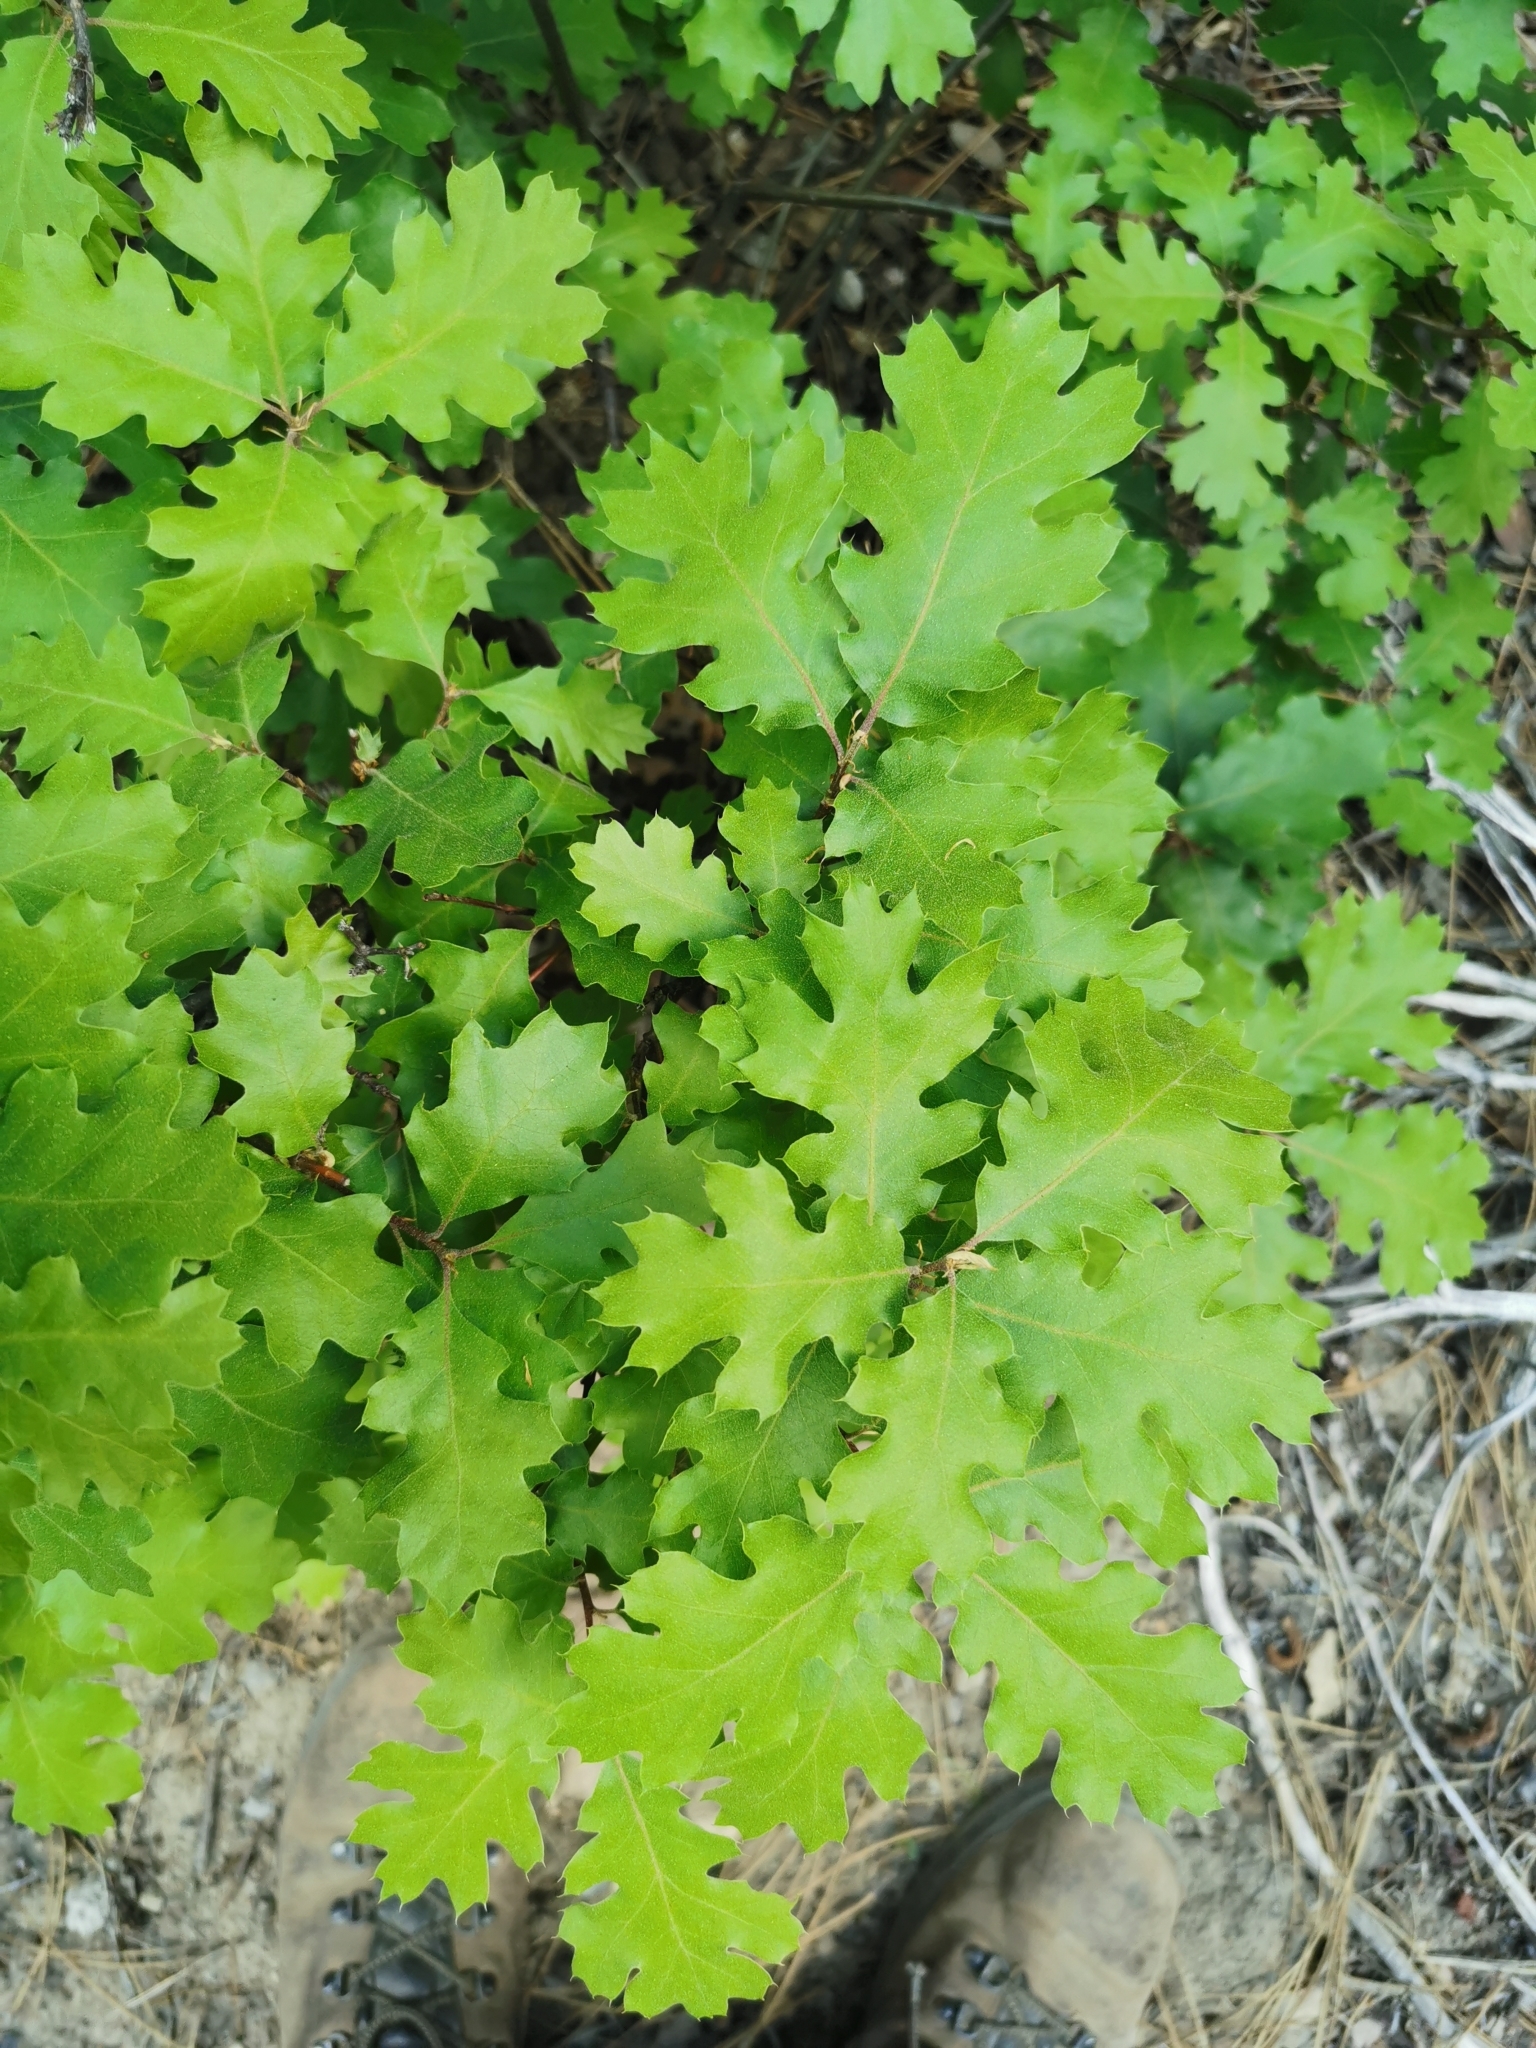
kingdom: Plantae
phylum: Tracheophyta
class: Magnoliopsida
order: Fagales
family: Fagaceae
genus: Quercus
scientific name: Quercus kelloggii
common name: California black oak
